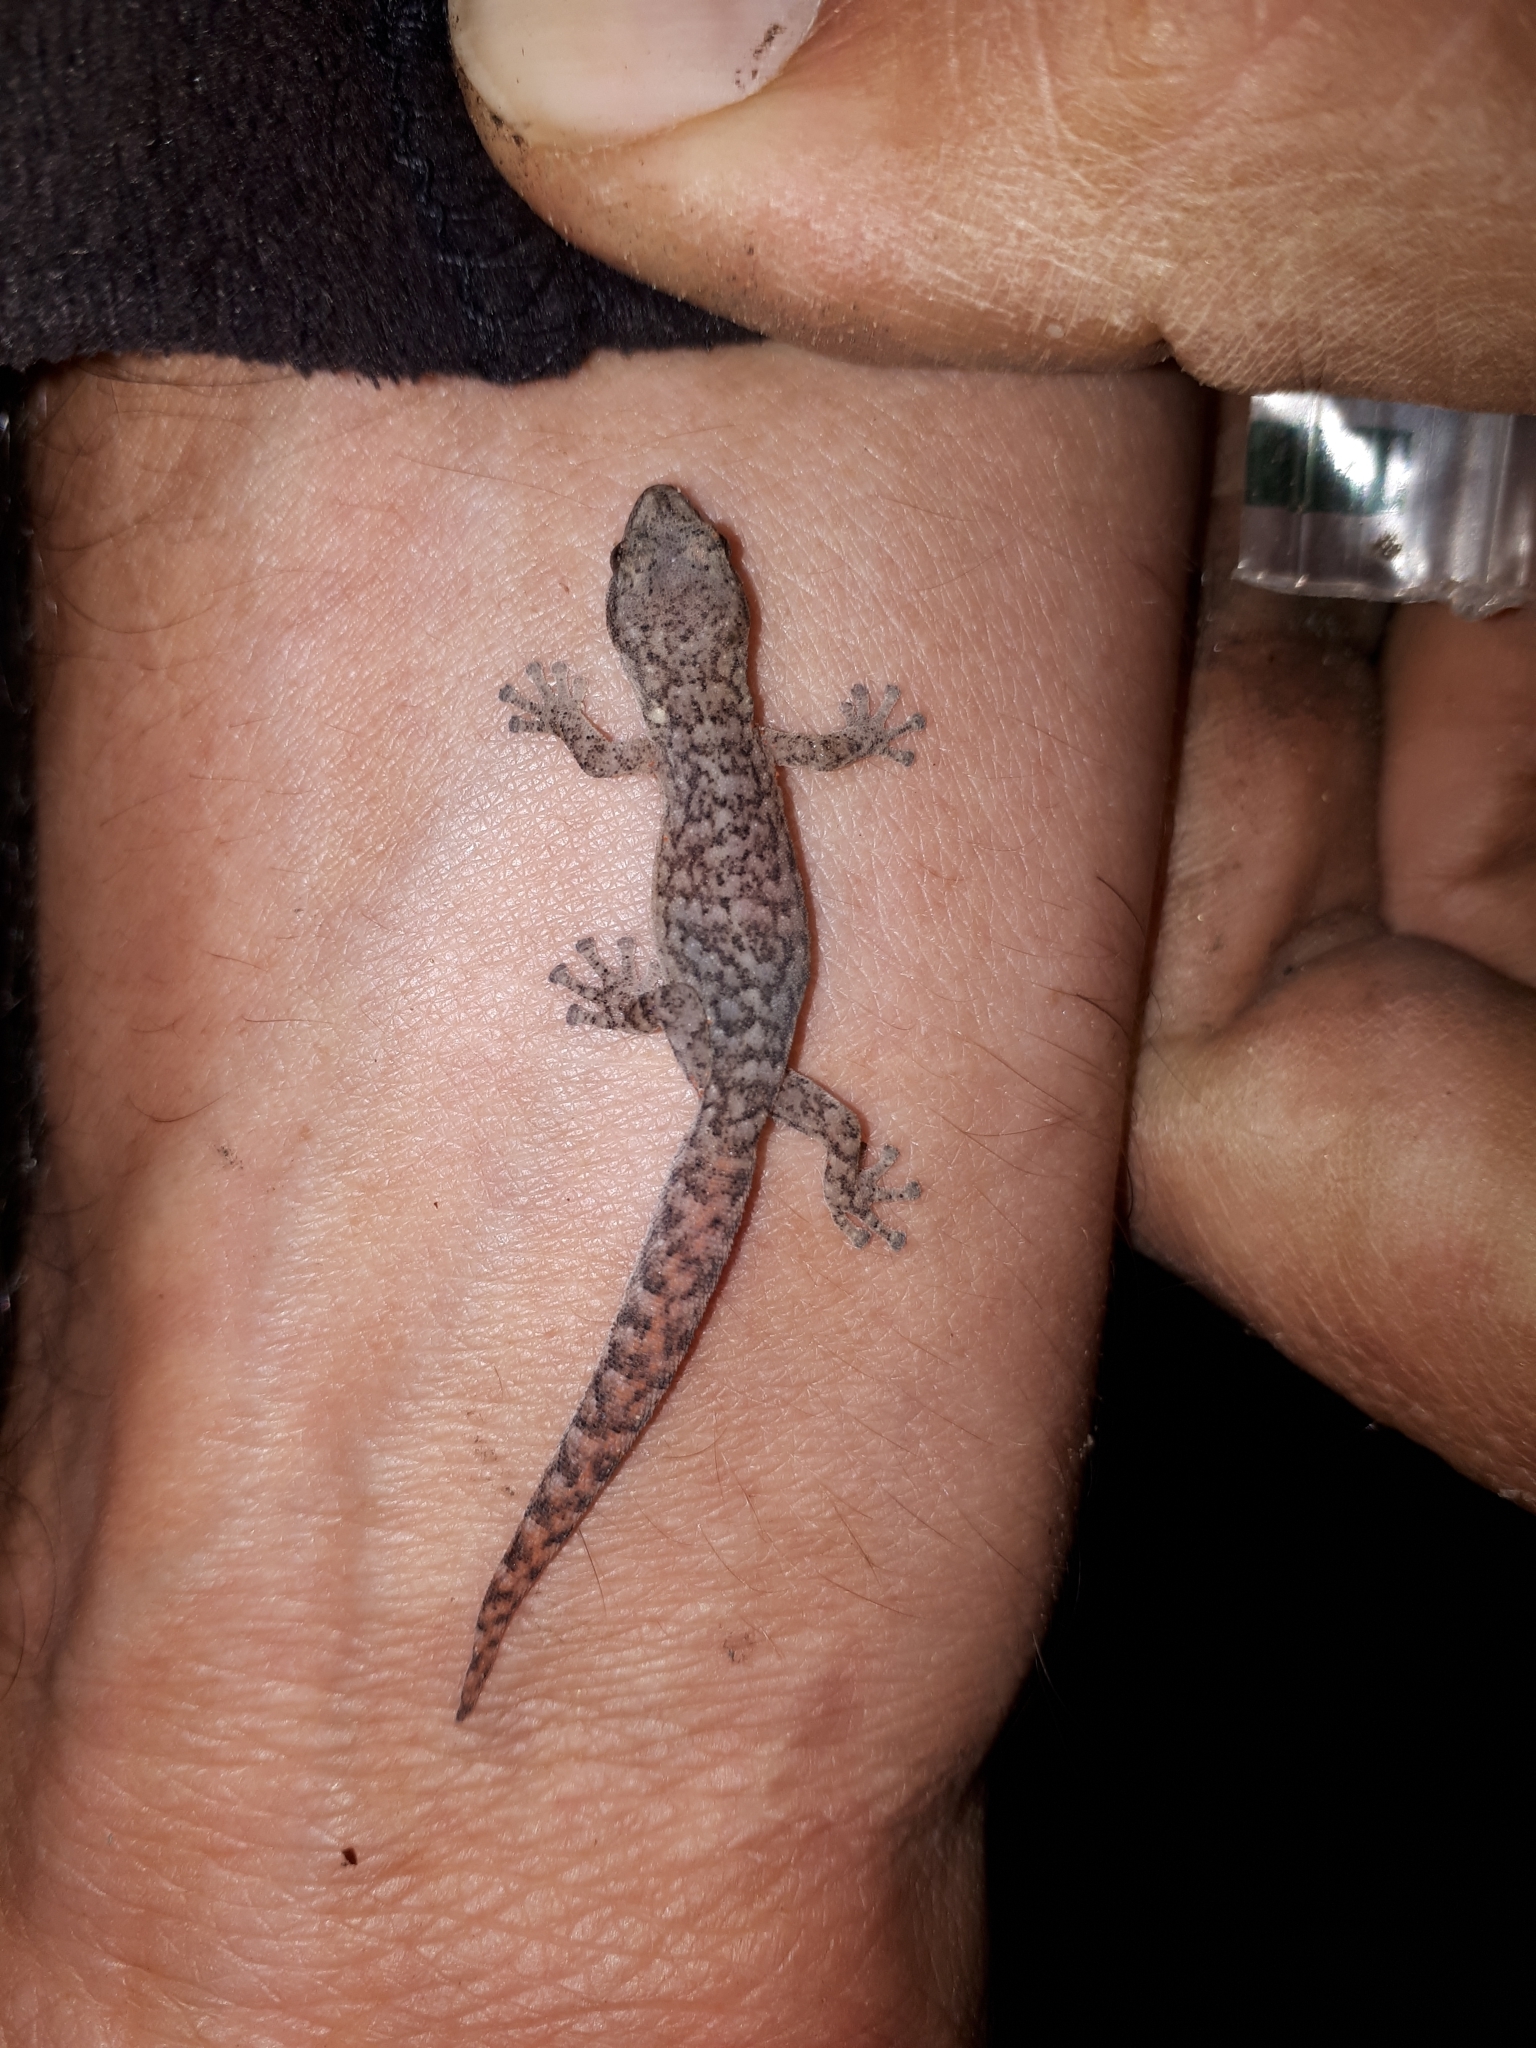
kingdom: Animalia
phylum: Chordata
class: Squamata
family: Gekkonidae
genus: Afrogecko
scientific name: Afrogecko porphyreus
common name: Marbled leaf-toed gecko
